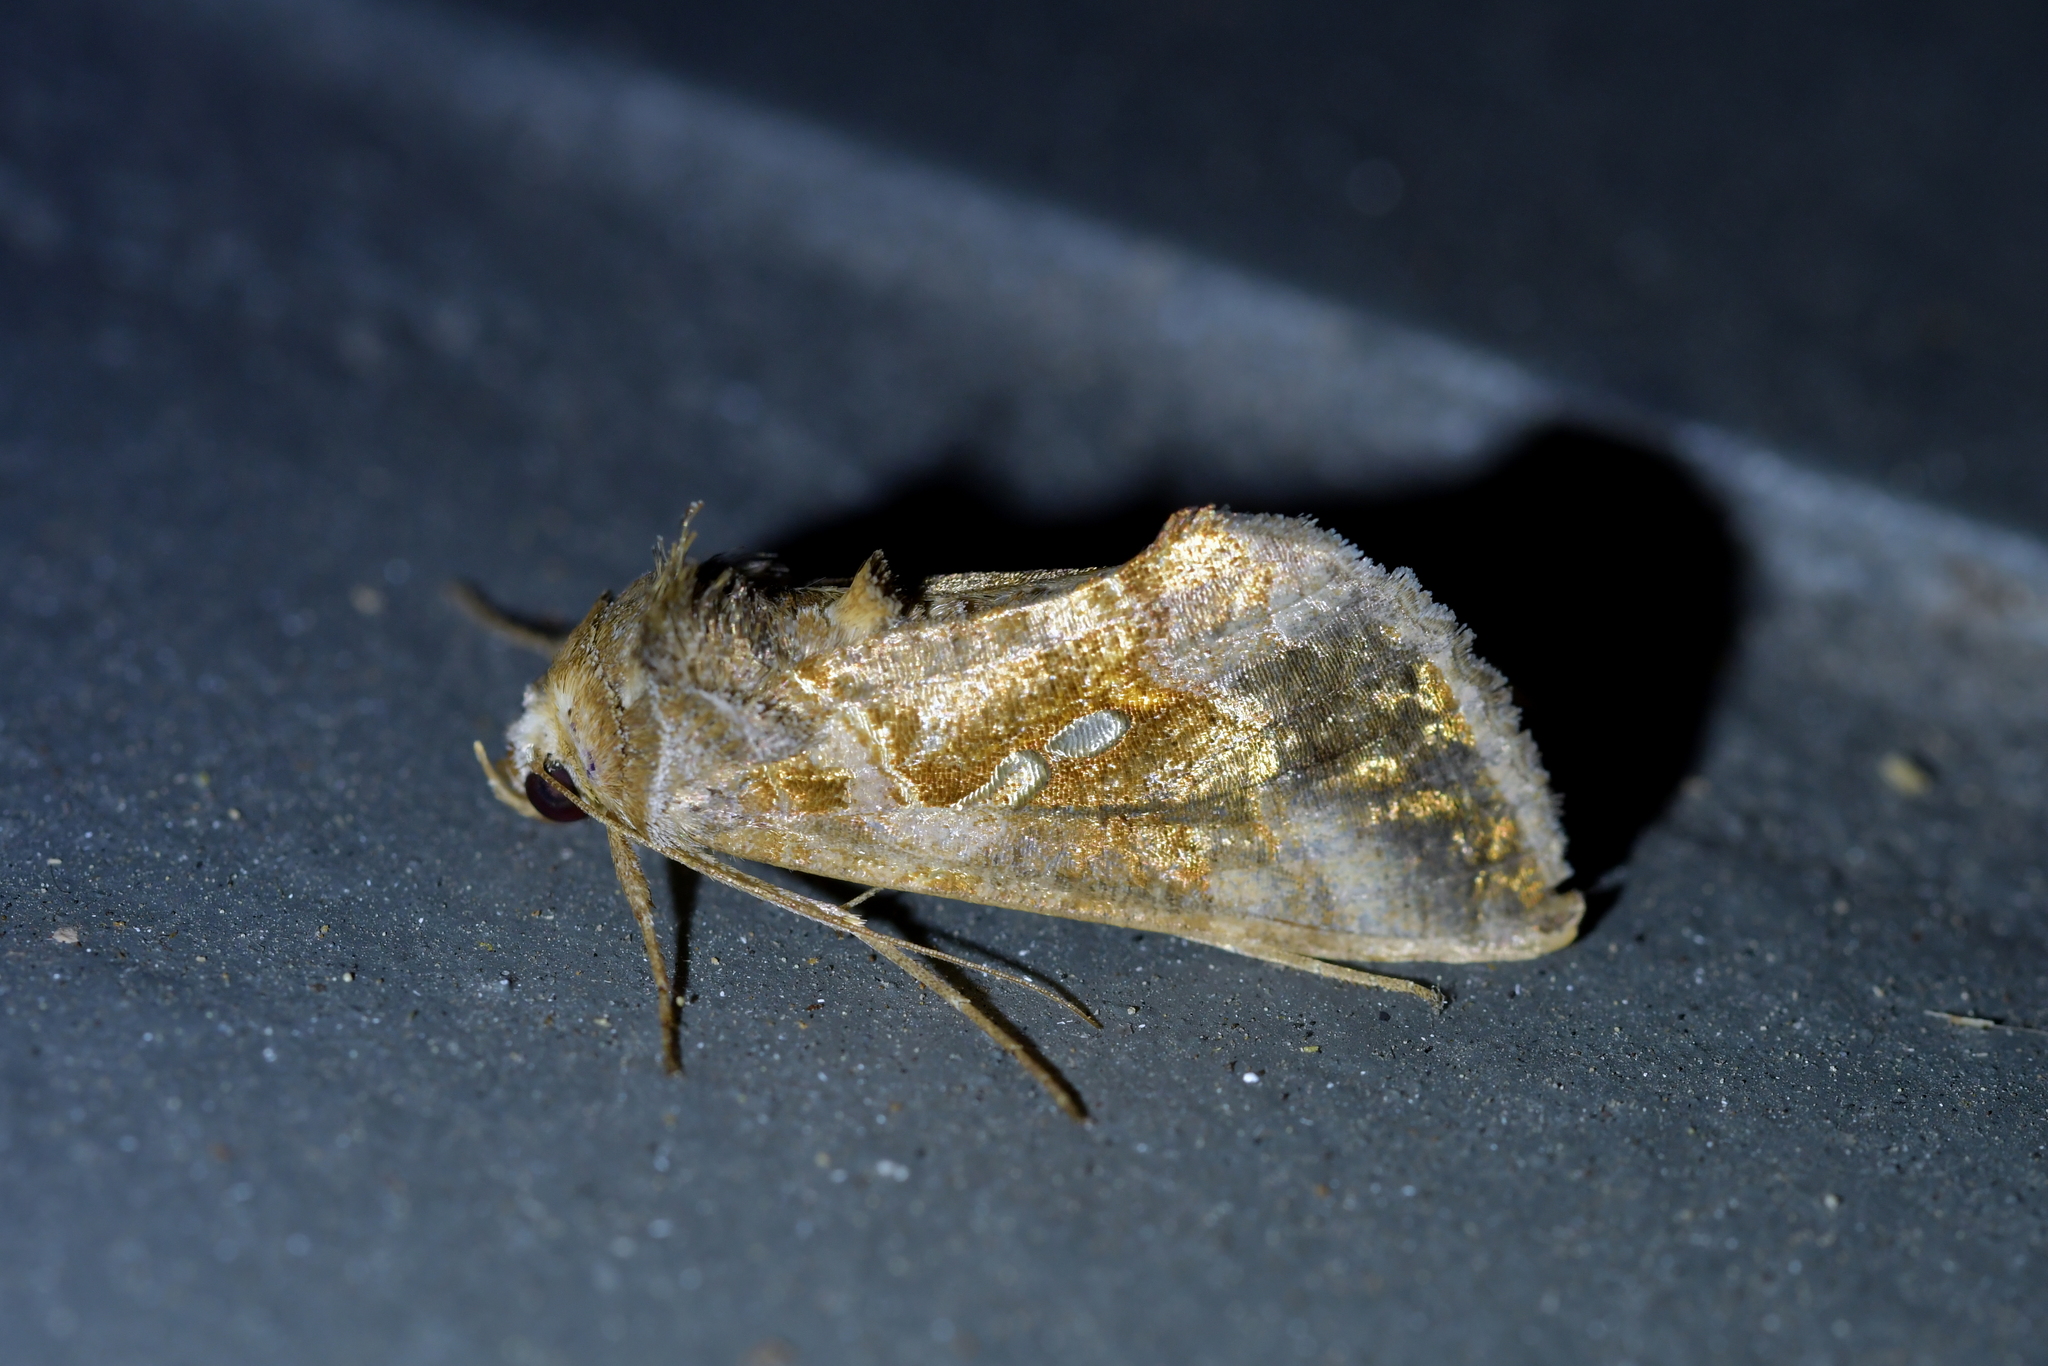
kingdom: Animalia
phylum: Arthropoda
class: Insecta
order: Lepidoptera
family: Noctuidae
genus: Chrysodeixis
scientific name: Chrysodeixis eriosoma
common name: Green garden looper
